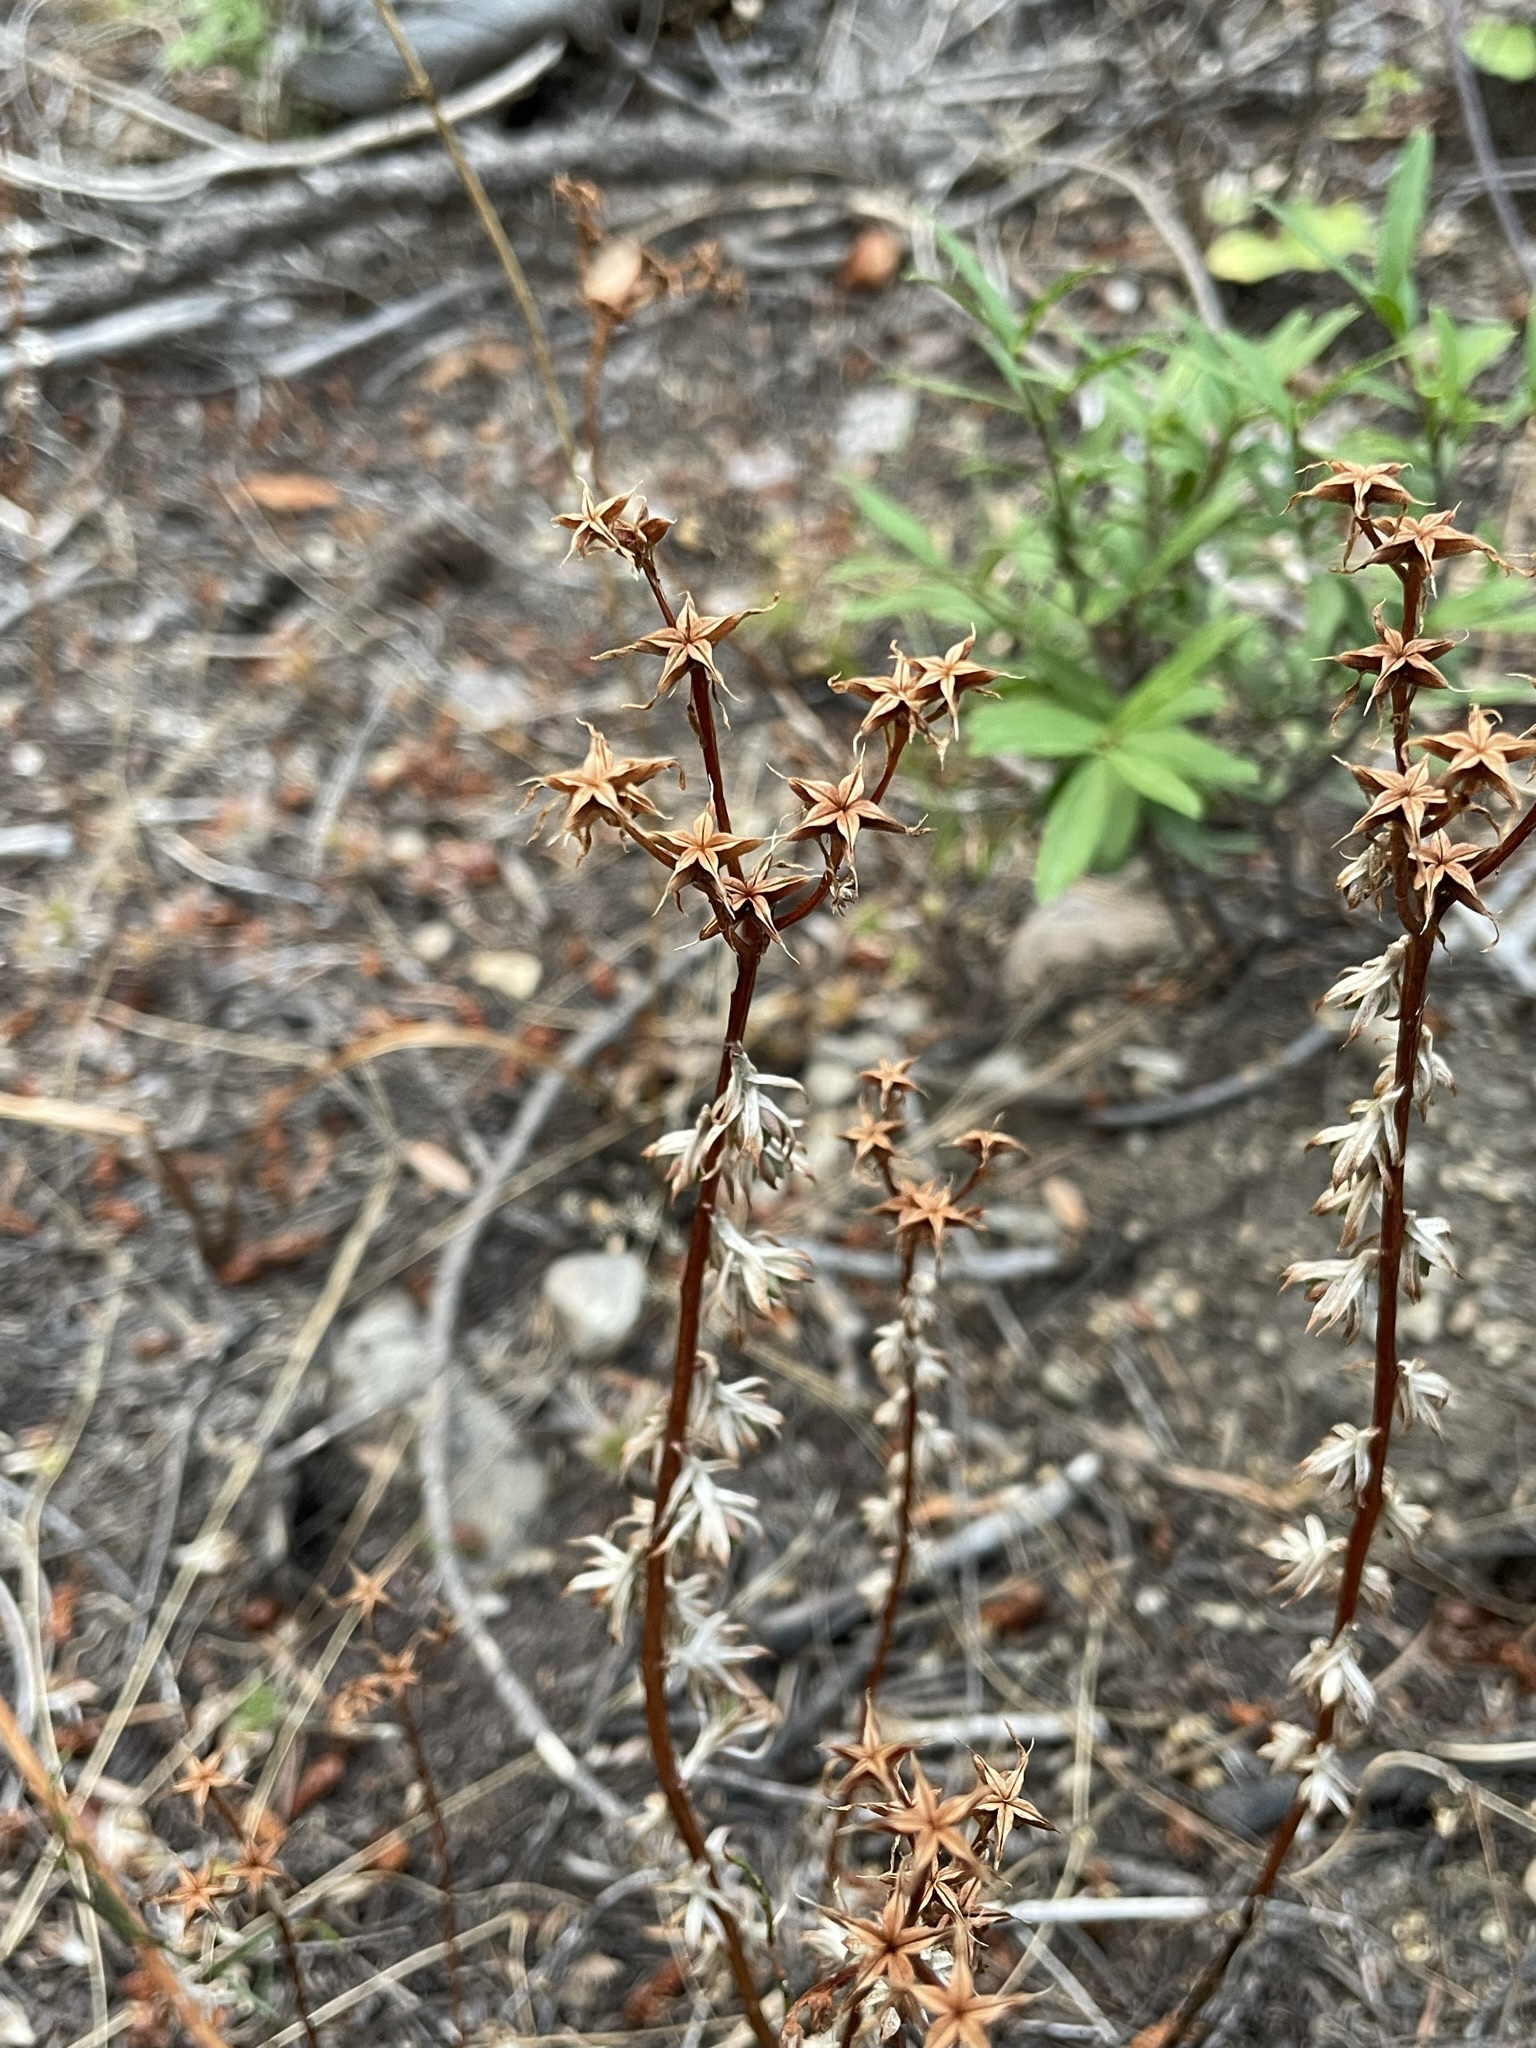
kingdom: Plantae
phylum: Tracheophyta
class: Magnoliopsida
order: Saxifragales
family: Crassulaceae
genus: Sedum
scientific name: Sedum stenopetalum
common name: Narrow-petaled stonecrop
